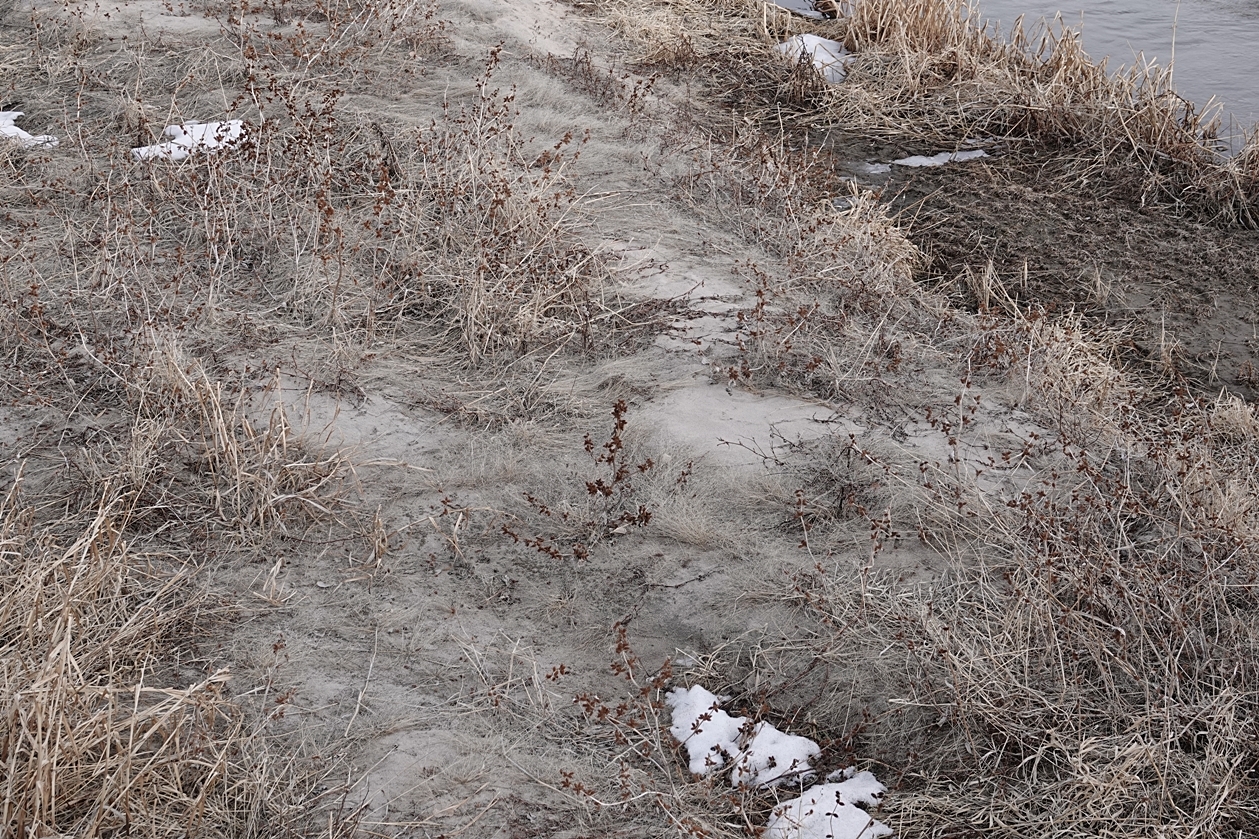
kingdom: Plantae
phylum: Tracheophyta
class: Magnoliopsida
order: Fabales
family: Fabaceae
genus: Glycyrrhiza
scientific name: Glycyrrhiza lepidota
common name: American liquorice
